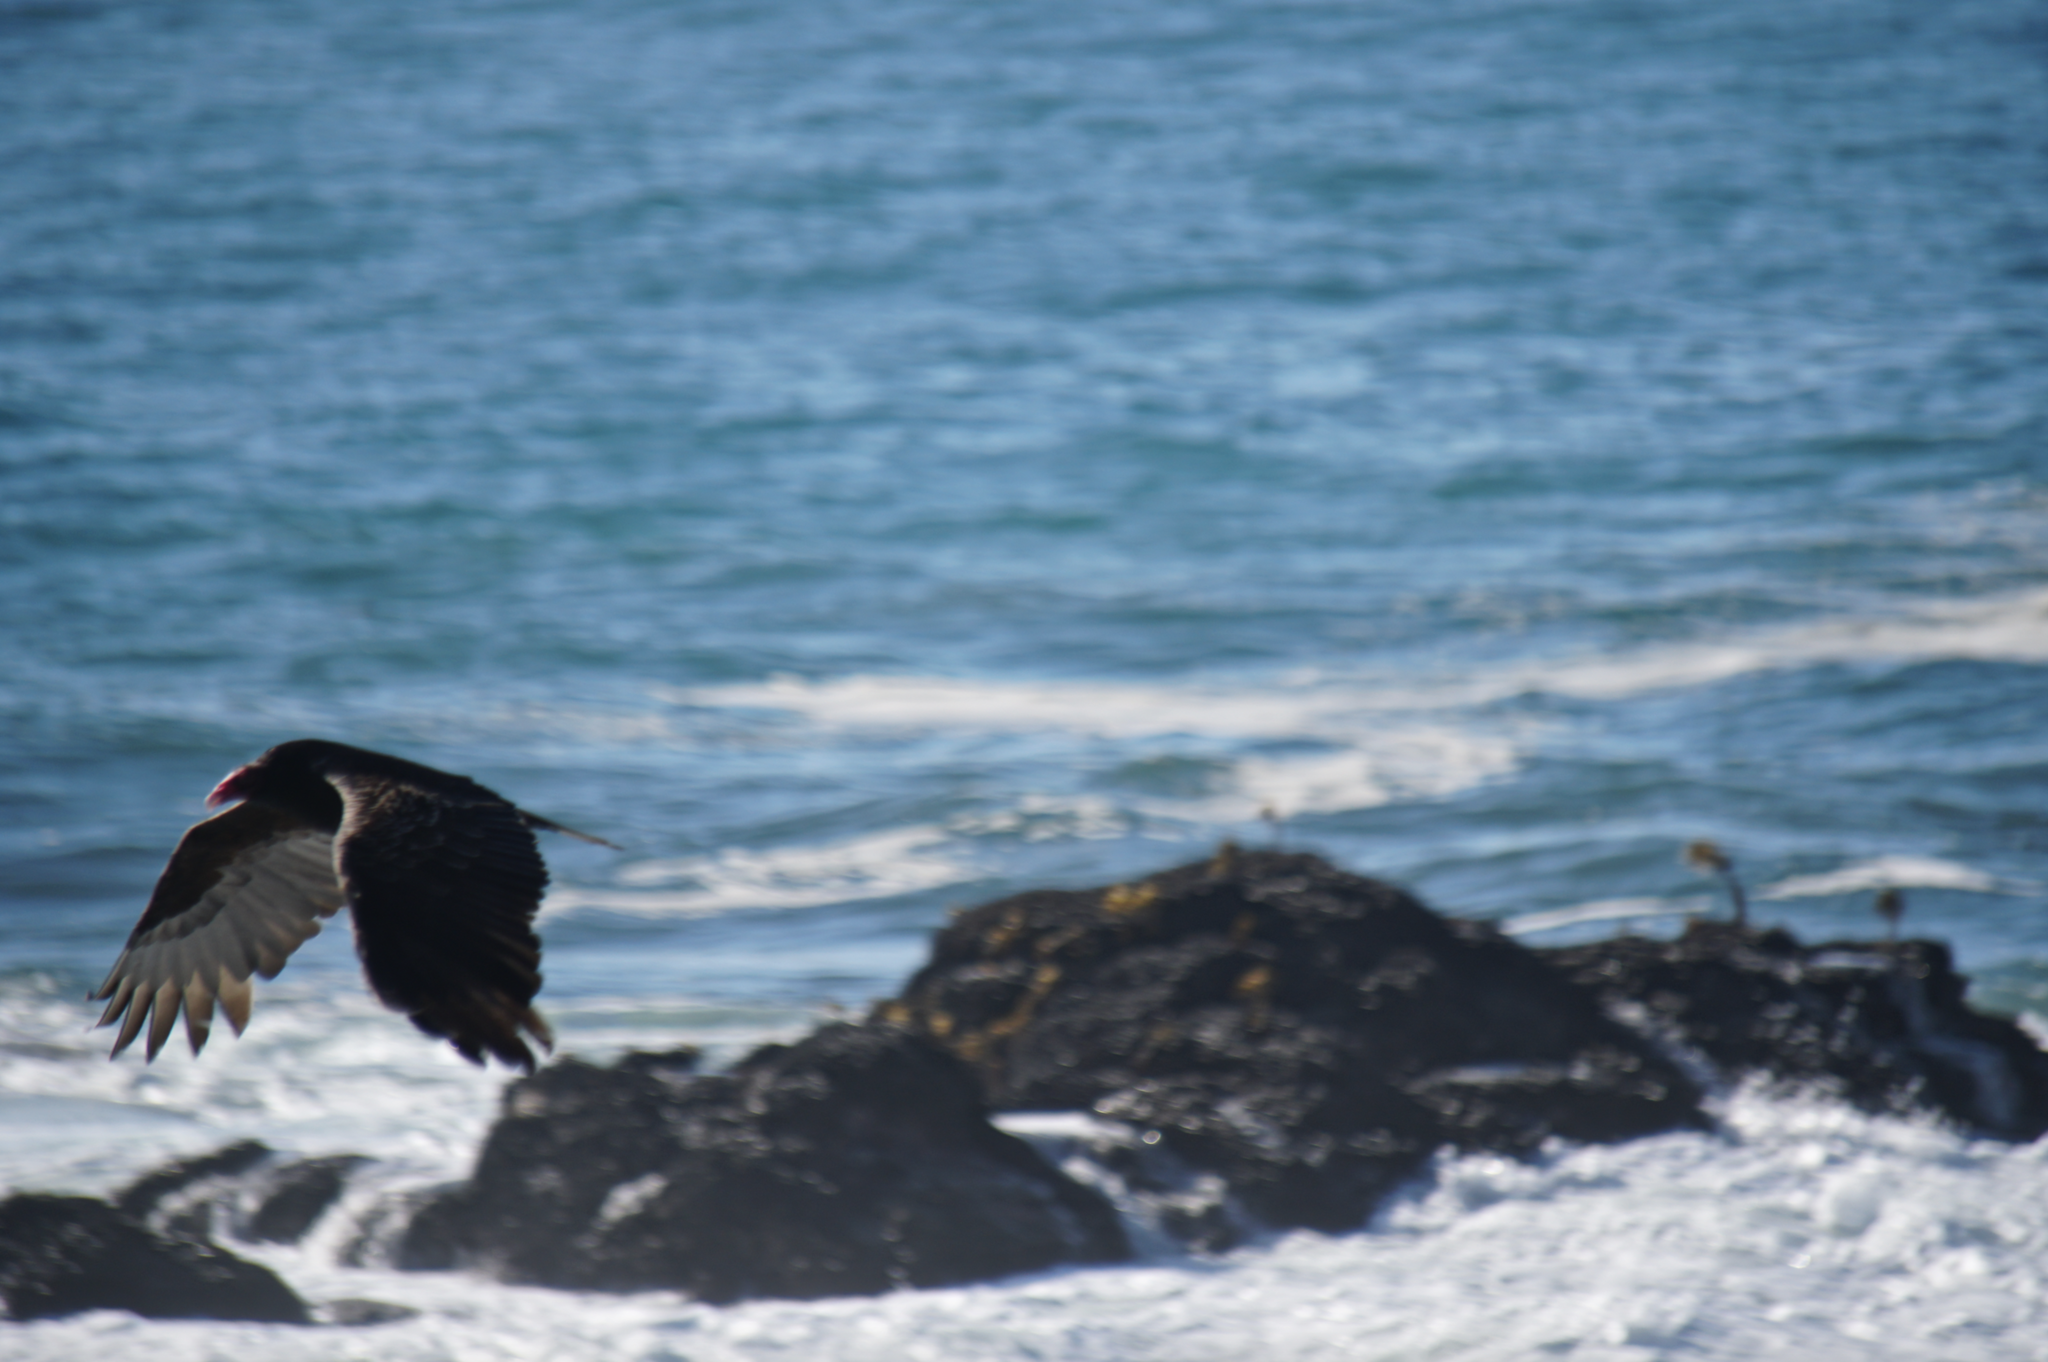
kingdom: Animalia
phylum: Chordata
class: Aves
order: Accipitriformes
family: Cathartidae
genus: Cathartes
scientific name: Cathartes aura
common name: Turkey vulture
